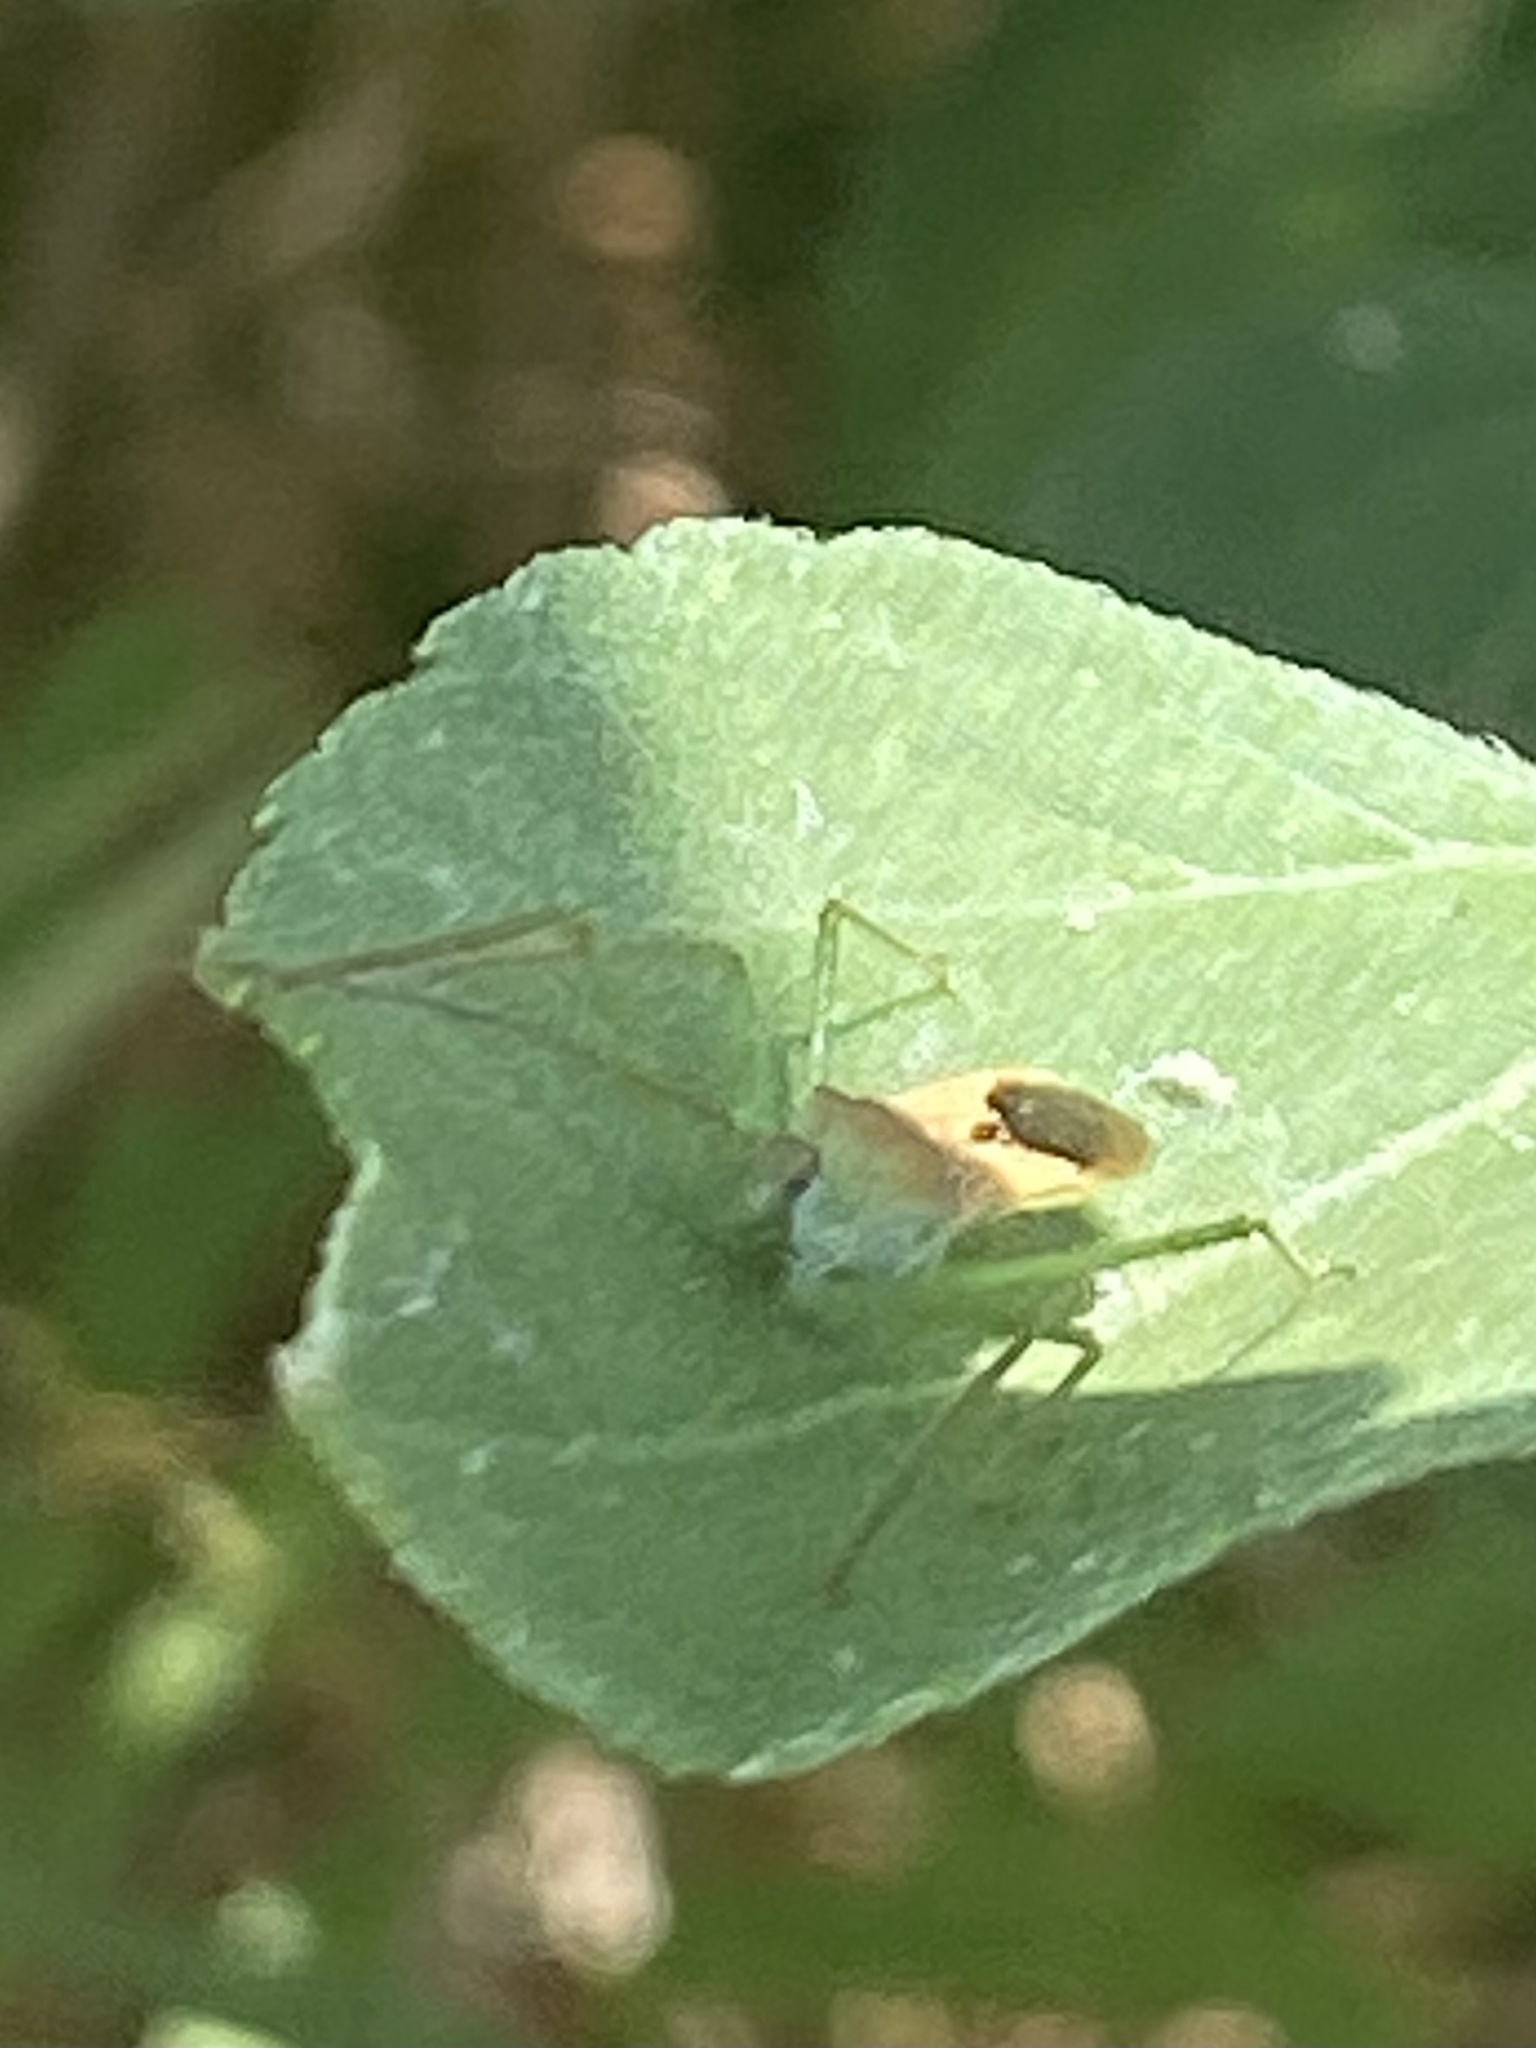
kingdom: Animalia
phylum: Arthropoda
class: Insecta
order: Hemiptera
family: Reduviidae
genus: Zelus
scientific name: Zelus renardii
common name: Assassin bug
